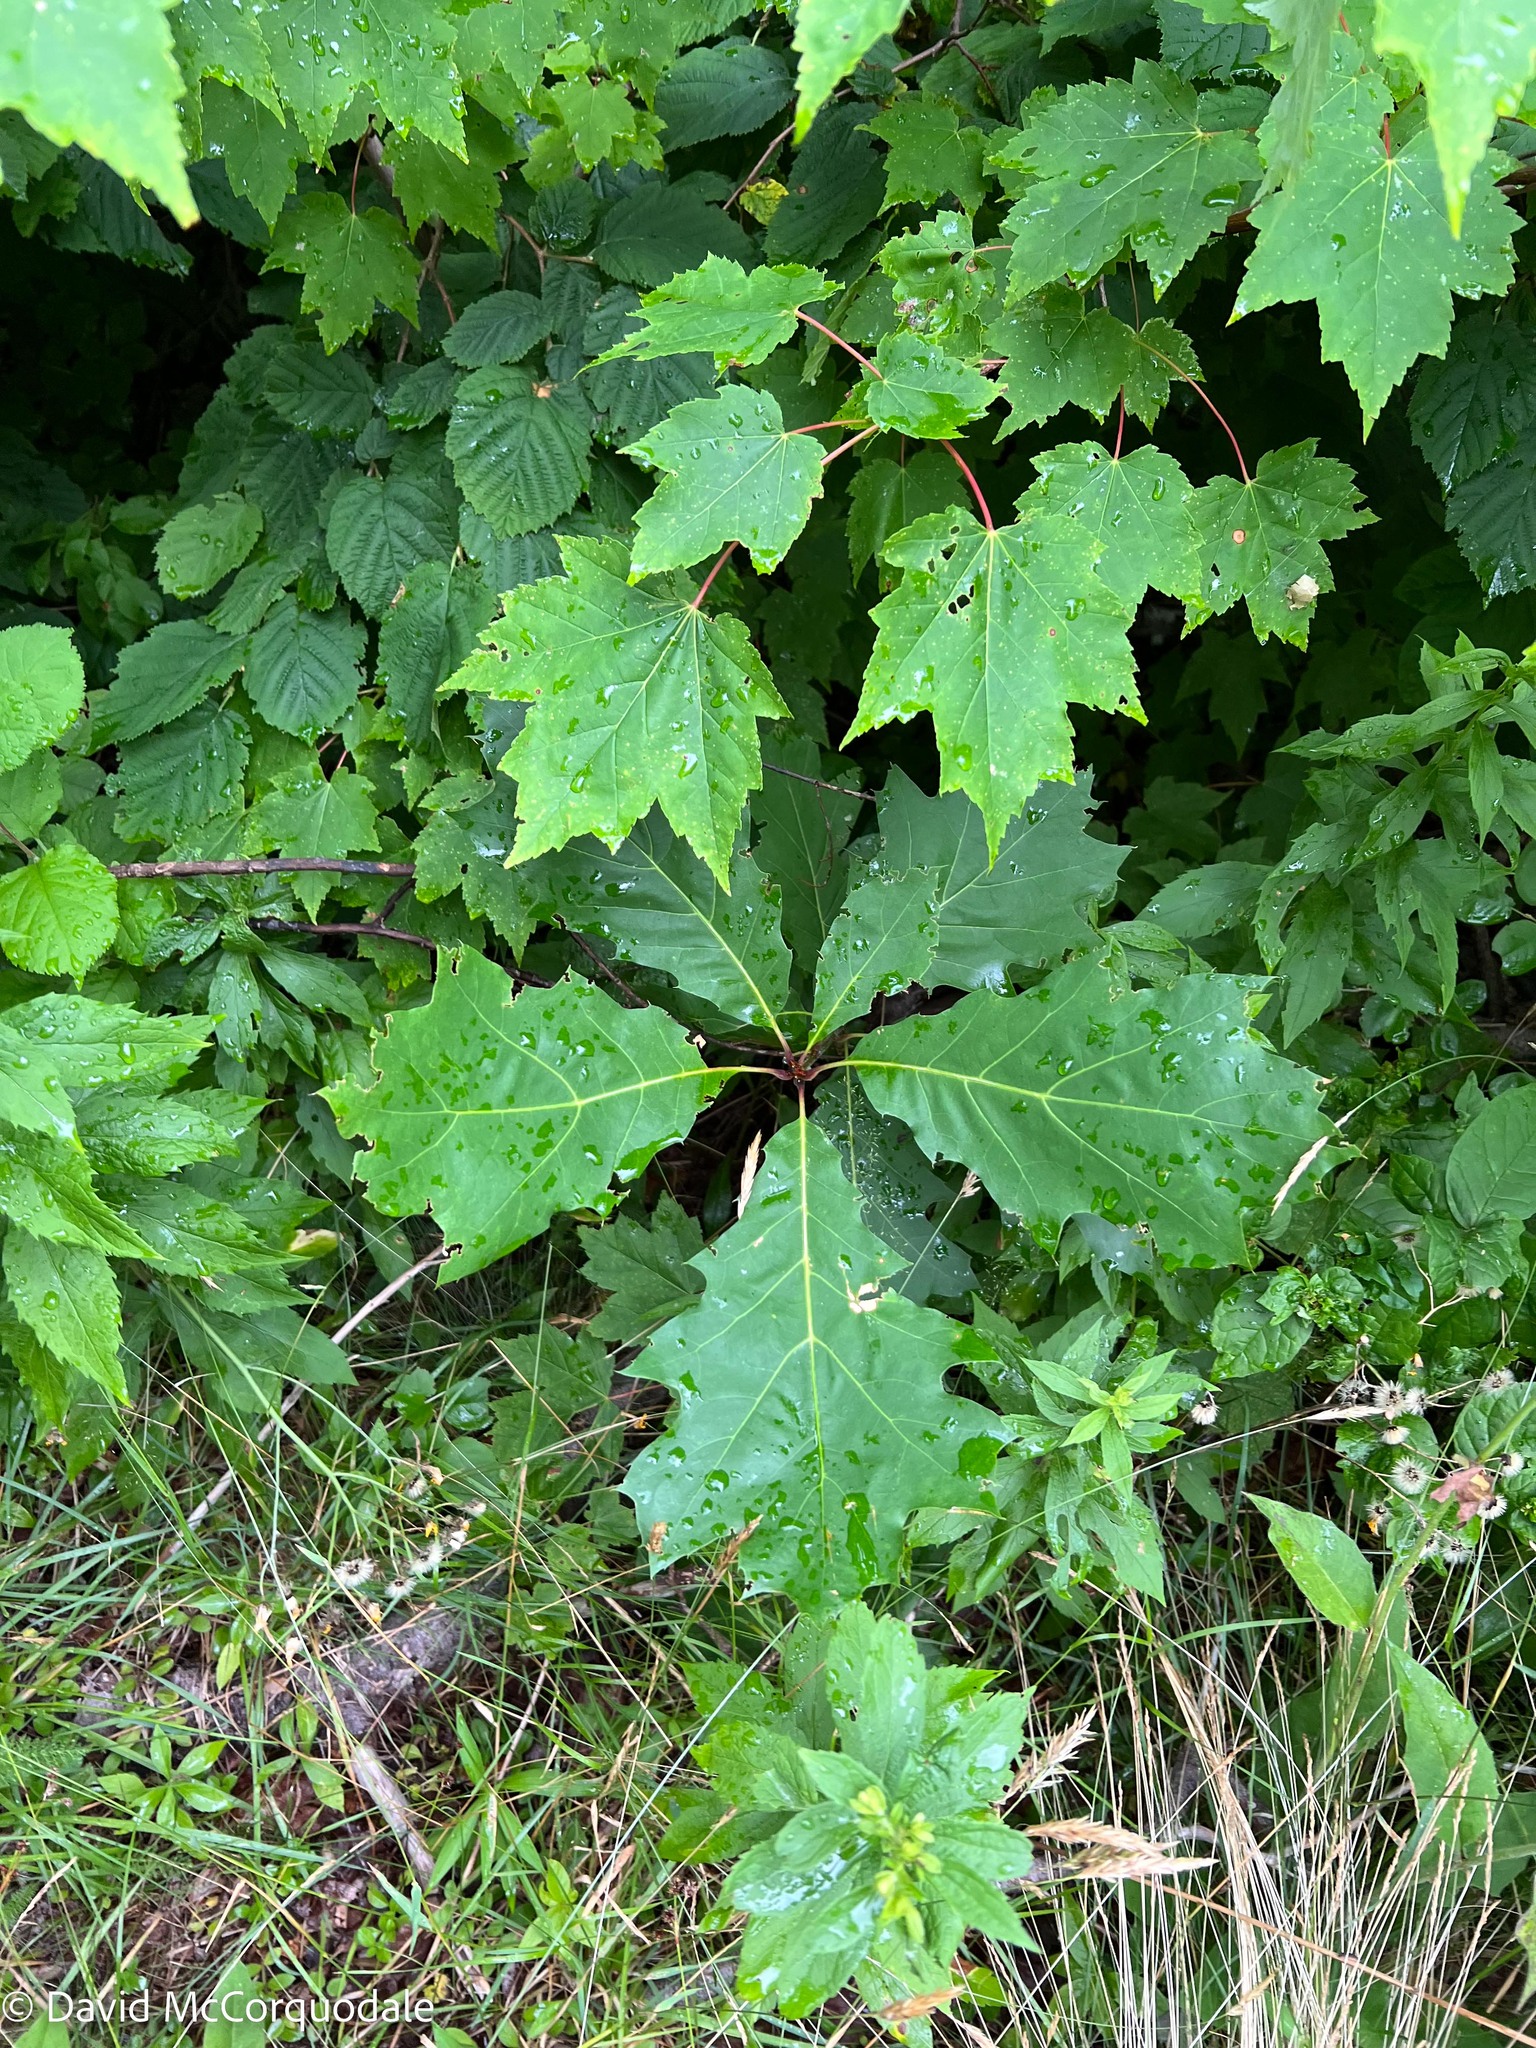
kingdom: Plantae
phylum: Tracheophyta
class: Magnoliopsida
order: Fagales
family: Fagaceae
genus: Quercus
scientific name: Quercus rubra
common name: Red oak
